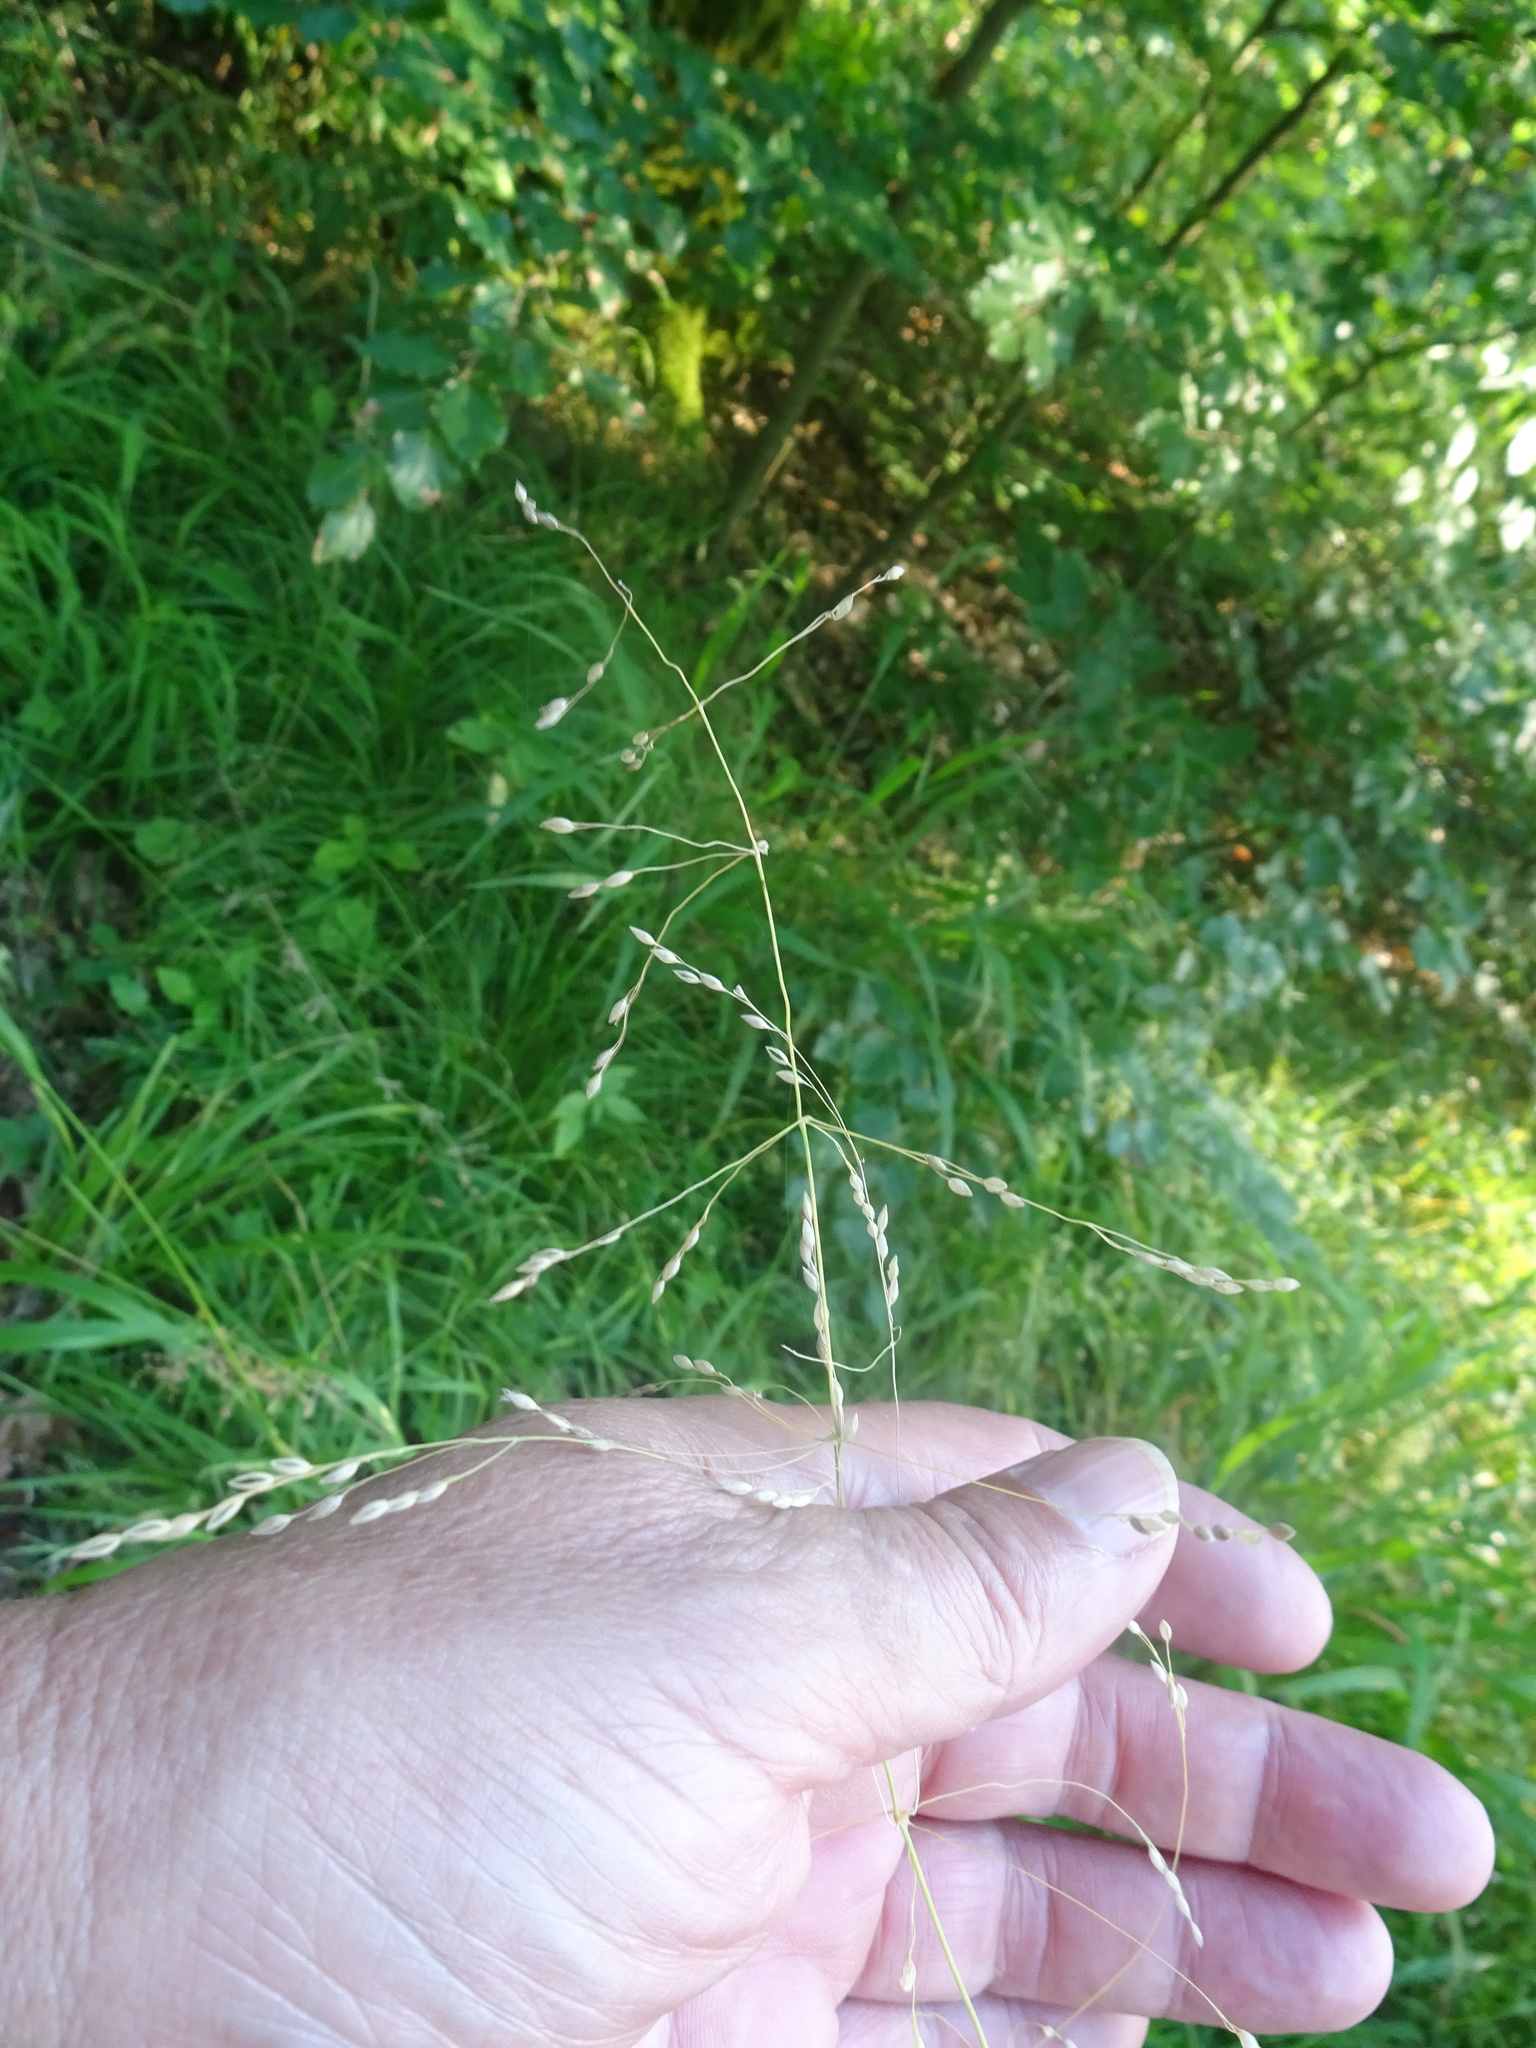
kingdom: Plantae
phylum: Tracheophyta
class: Liliopsida
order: Poales
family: Poaceae
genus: Milium
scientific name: Milium effusum
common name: Wood millet
